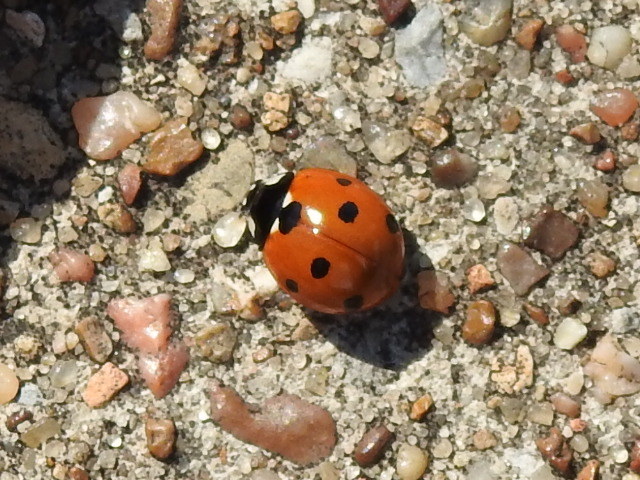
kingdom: Animalia
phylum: Arthropoda
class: Insecta
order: Coleoptera
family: Coccinellidae
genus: Coccinella
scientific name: Coccinella septempunctata
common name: Sevenspotted lady beetle
